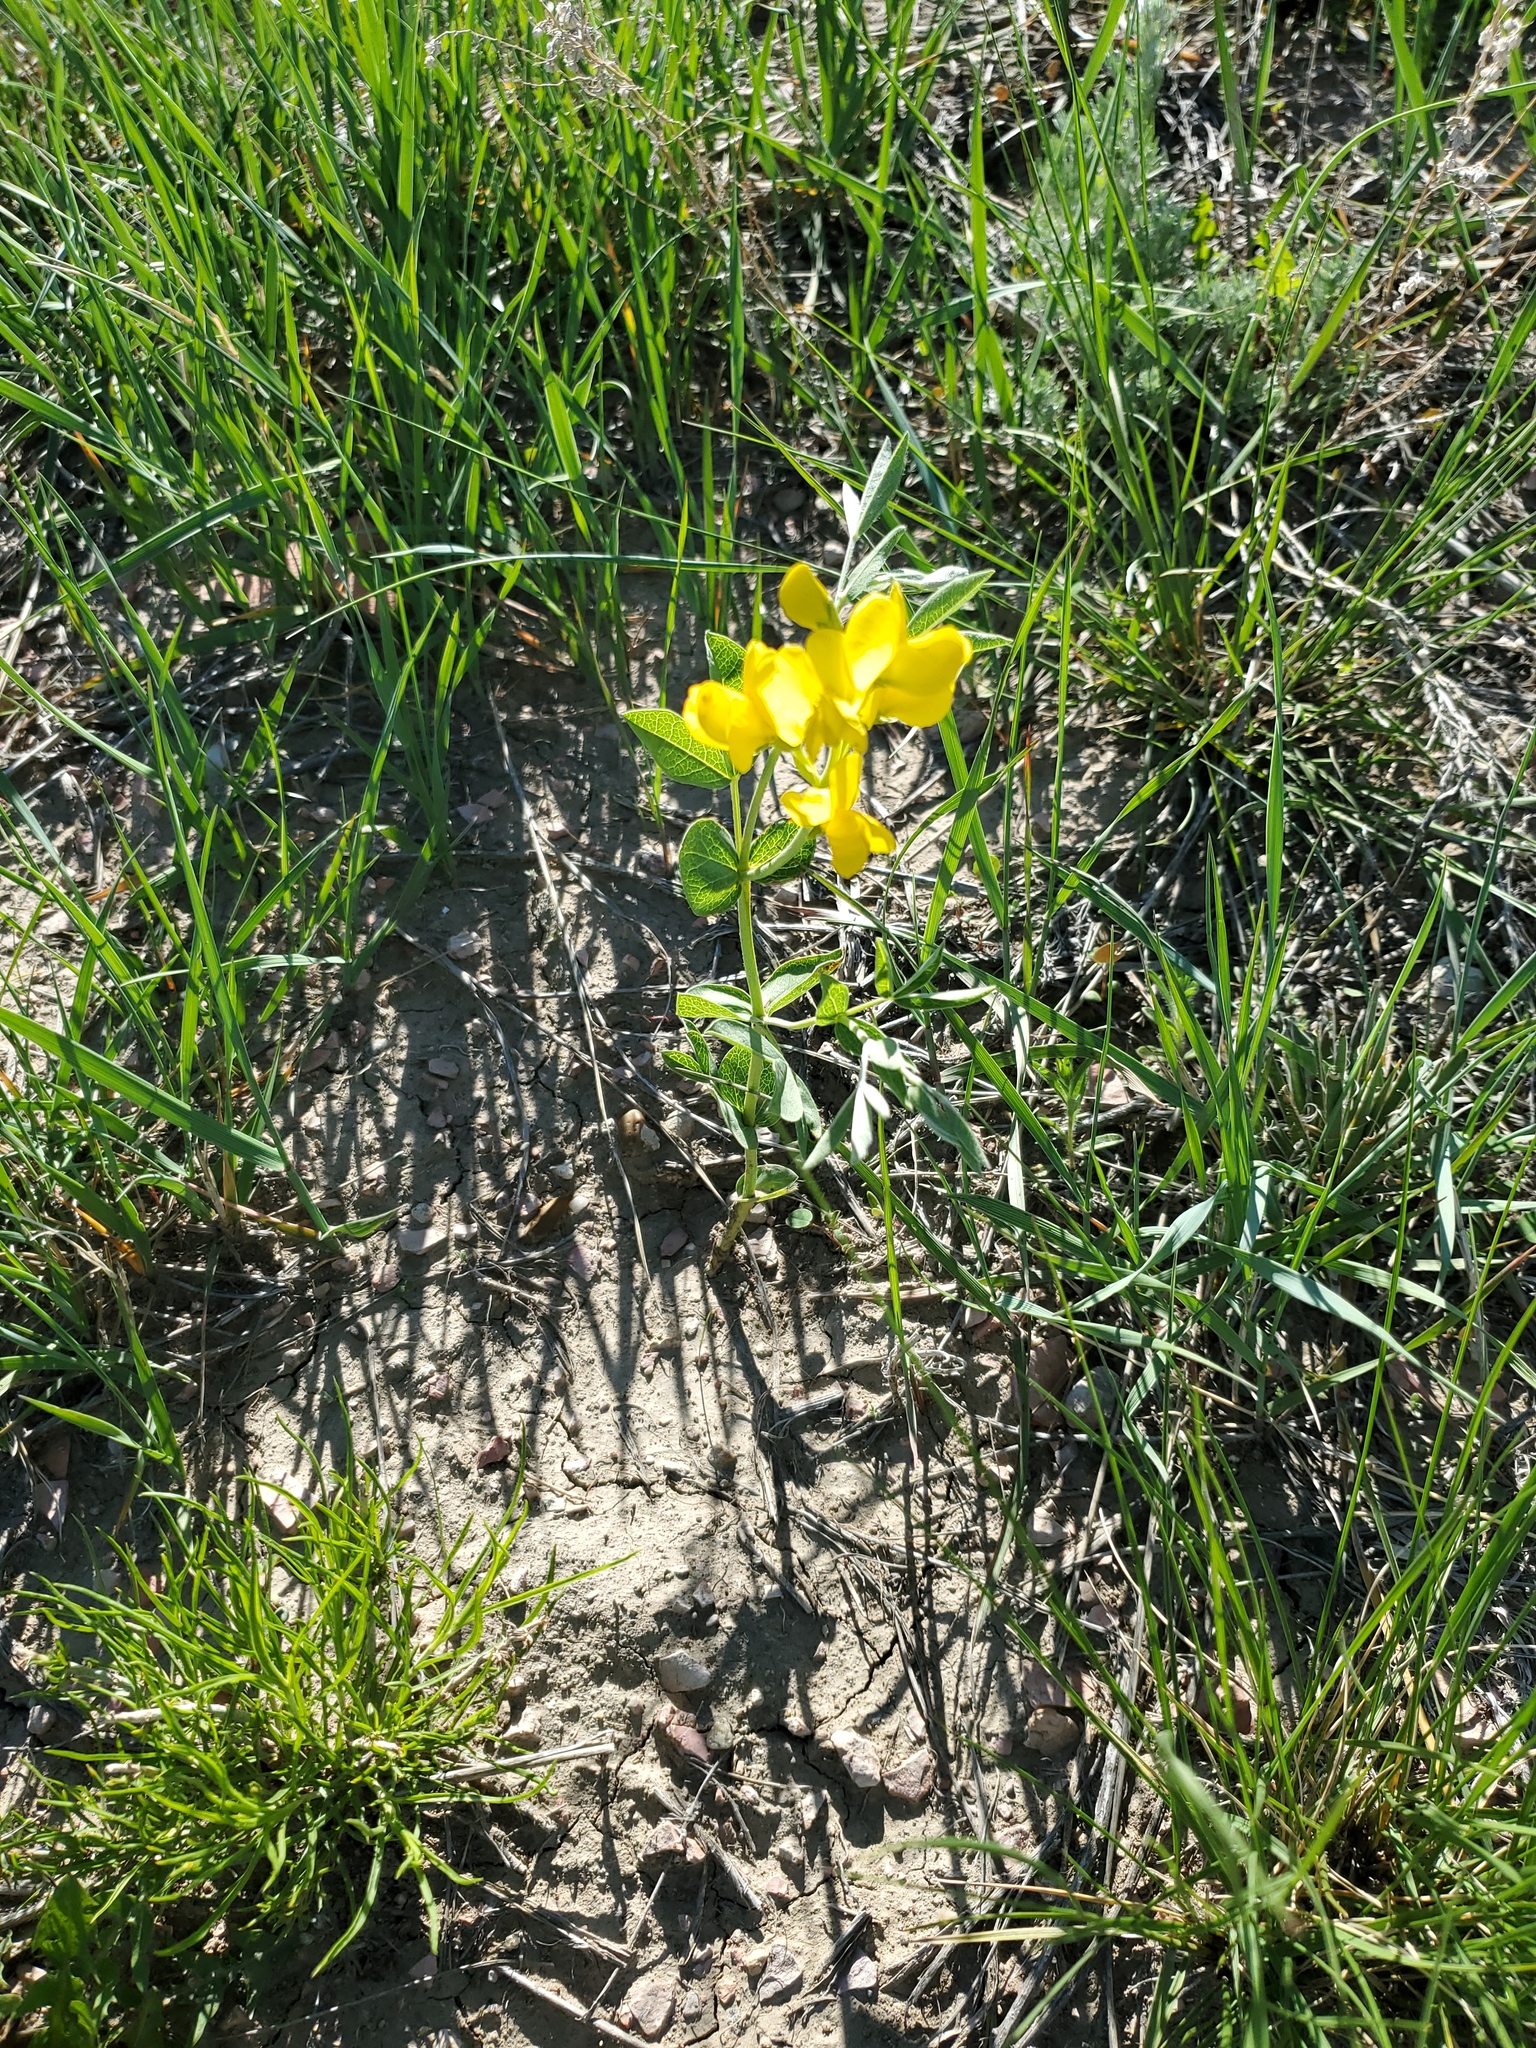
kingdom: Plantae
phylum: Tracheophyta
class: Magnoliopsida
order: Fabales
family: Fabaceae
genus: Thermopsis
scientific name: Thermopsis rhombifolia
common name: Circle-pod-pea
